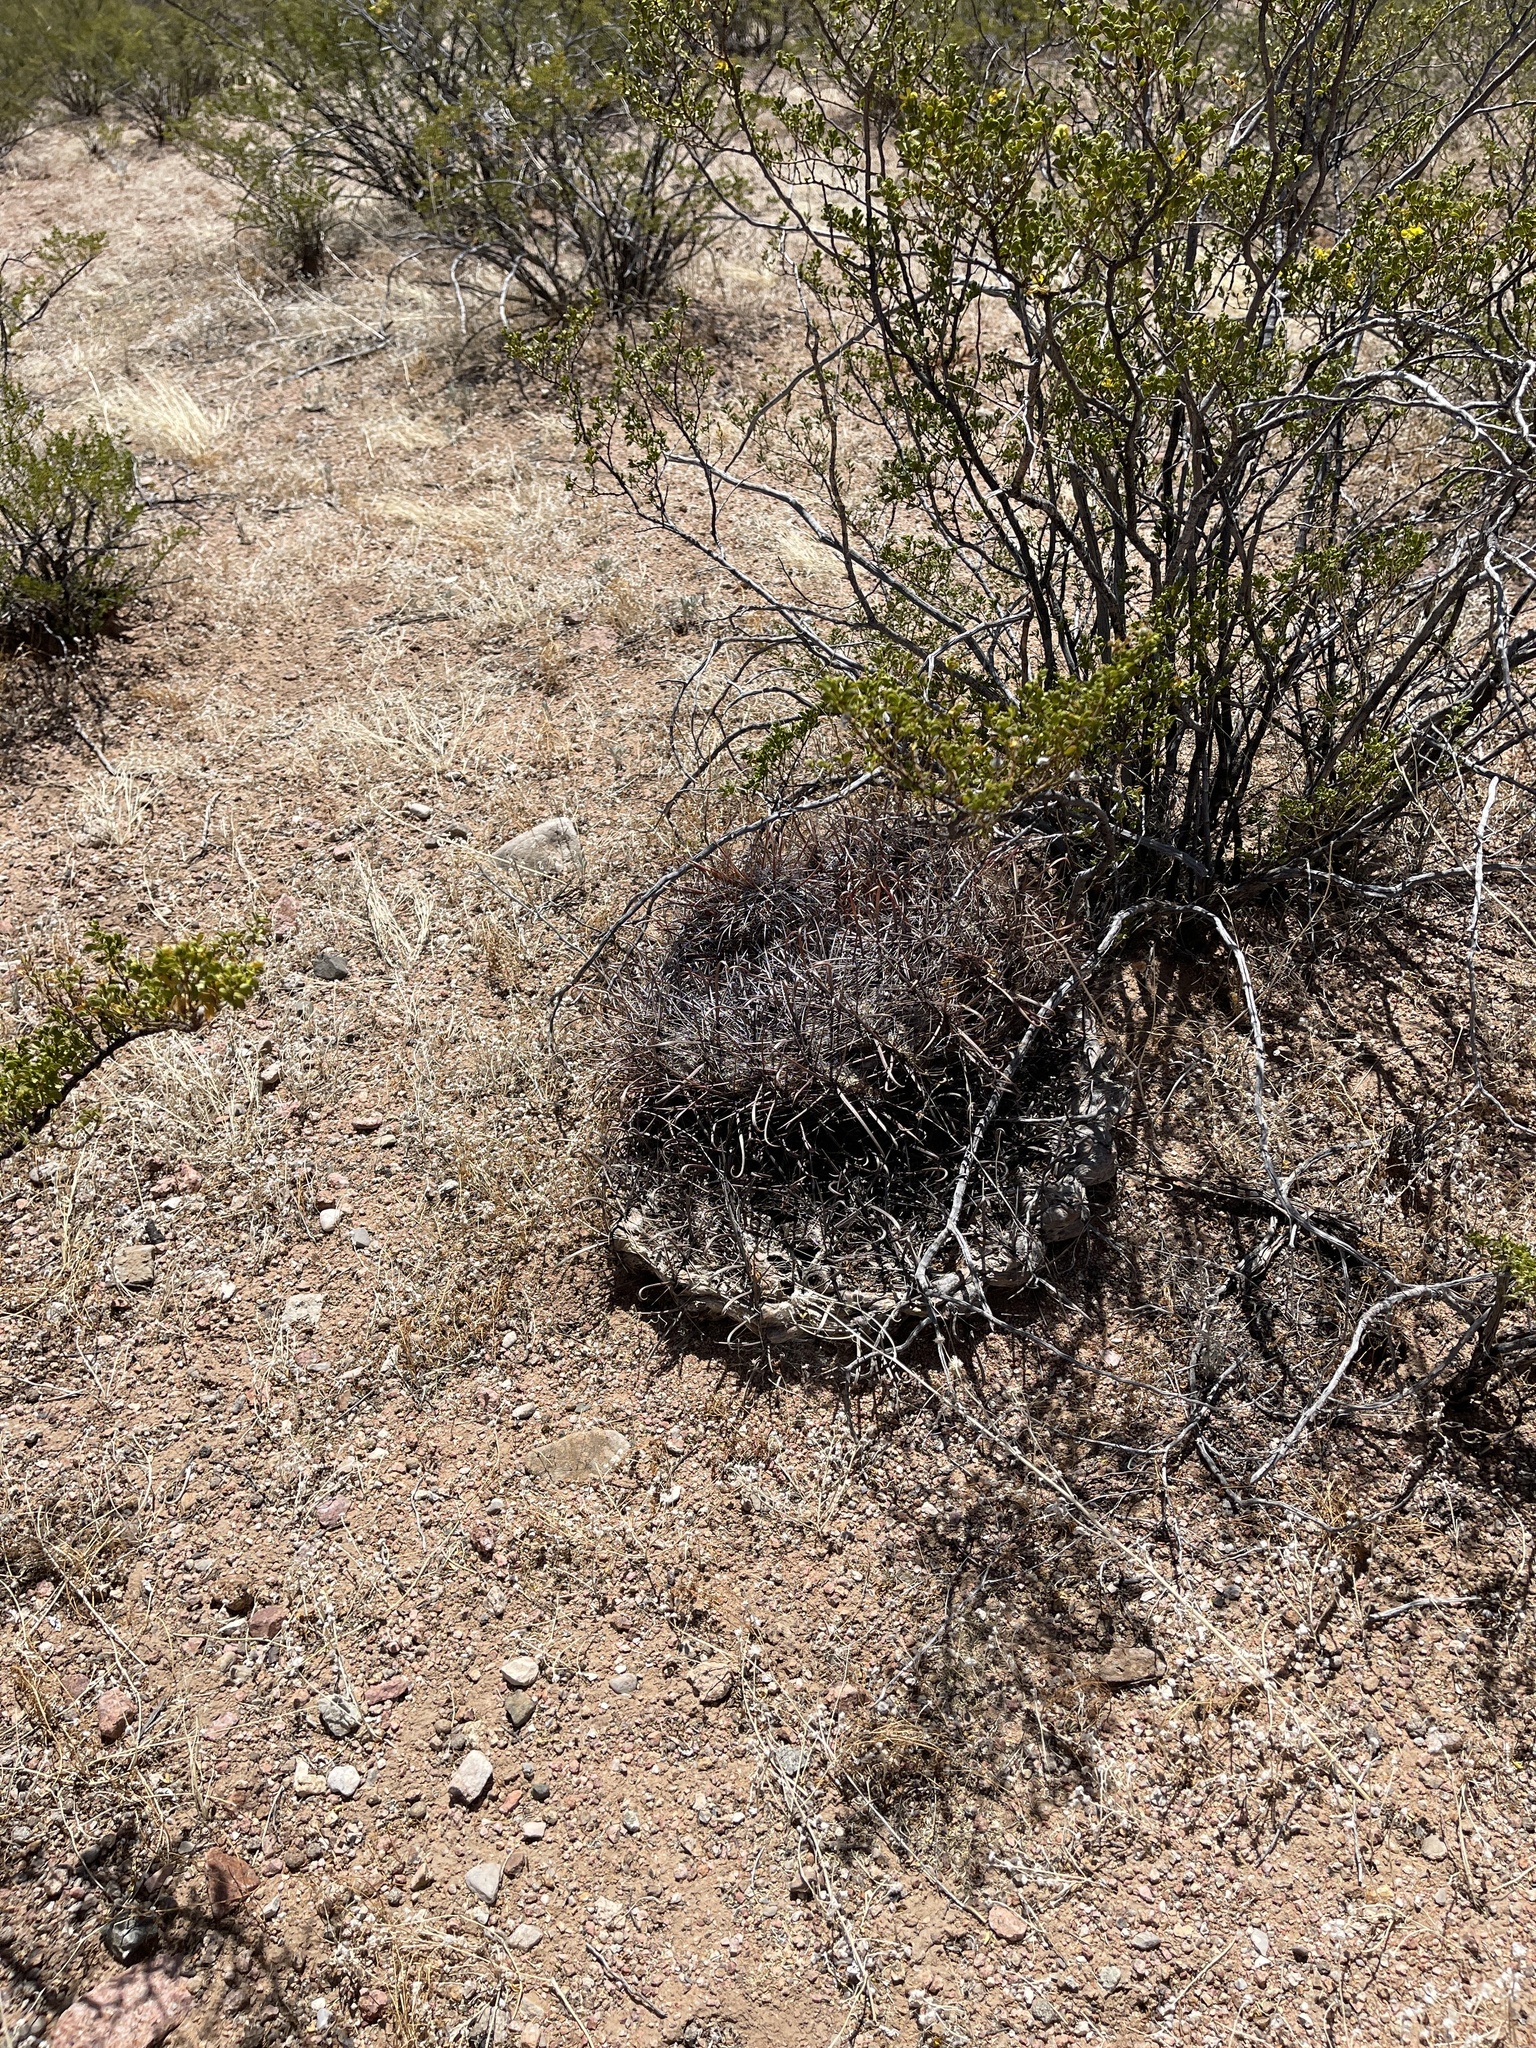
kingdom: Plantae
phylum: Tracheophyta
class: Magnoliopsida
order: Caryophyllales
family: Cactaceae
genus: Ferocactus
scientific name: Ferocactus wislizeni
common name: Candy barrel cactus
